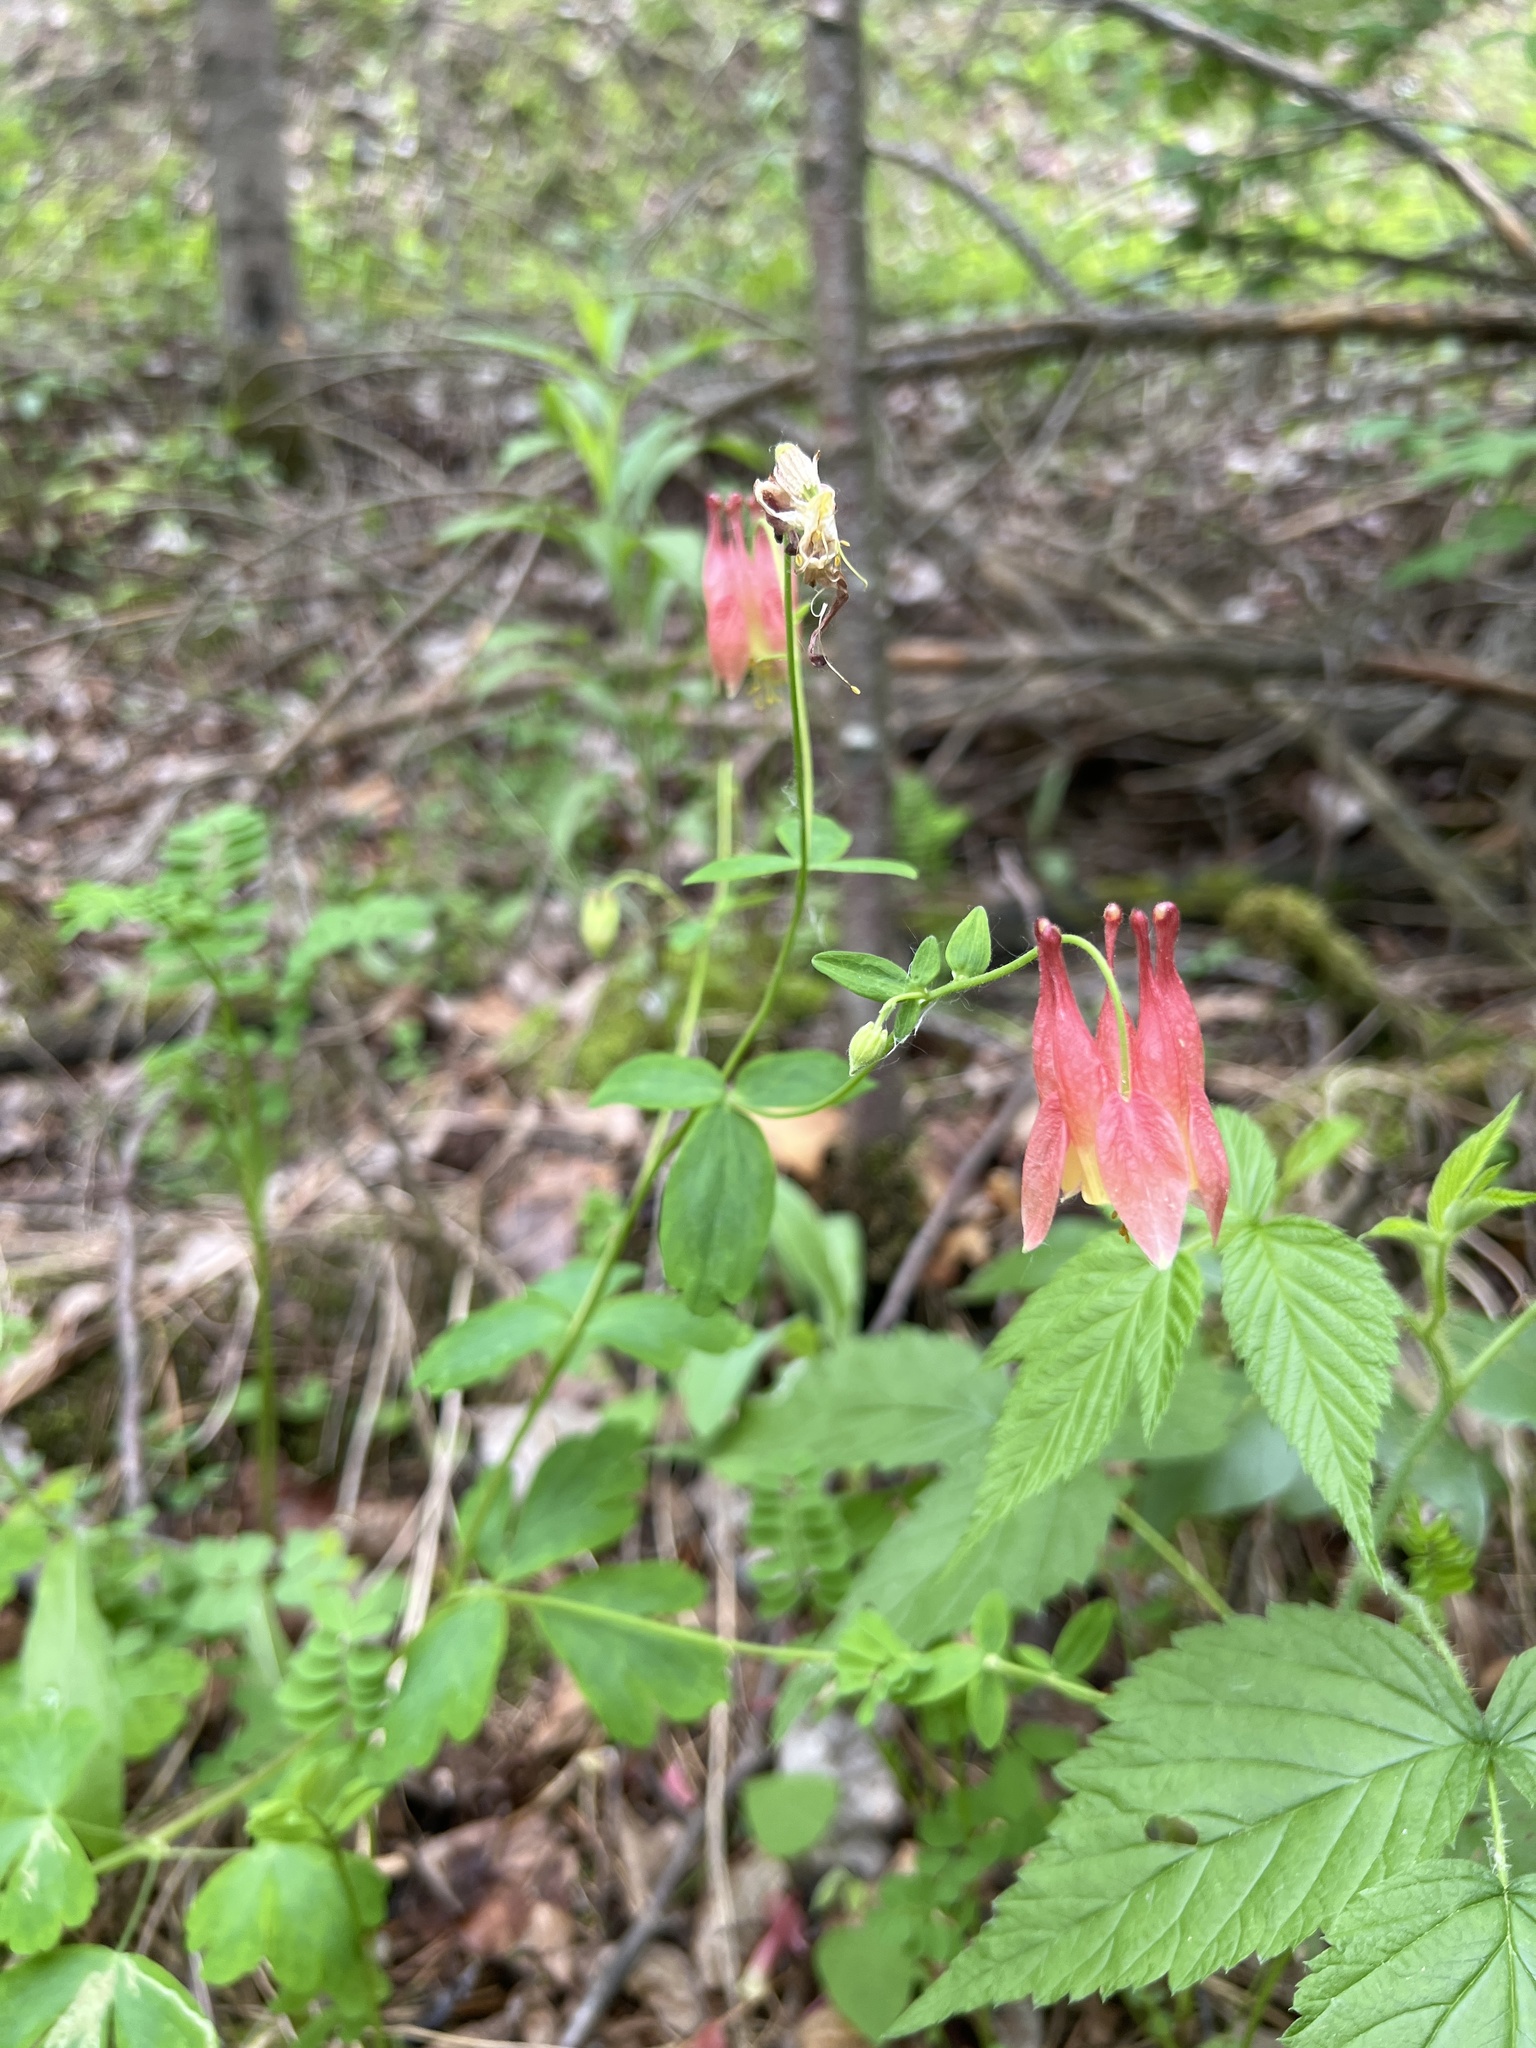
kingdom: Plantae
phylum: Tracheophyta
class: Magnoliopsida
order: Ranunculales
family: Ranunculaceae
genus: Aquilegia
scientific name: Aquilegia canadensis
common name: American columbine
